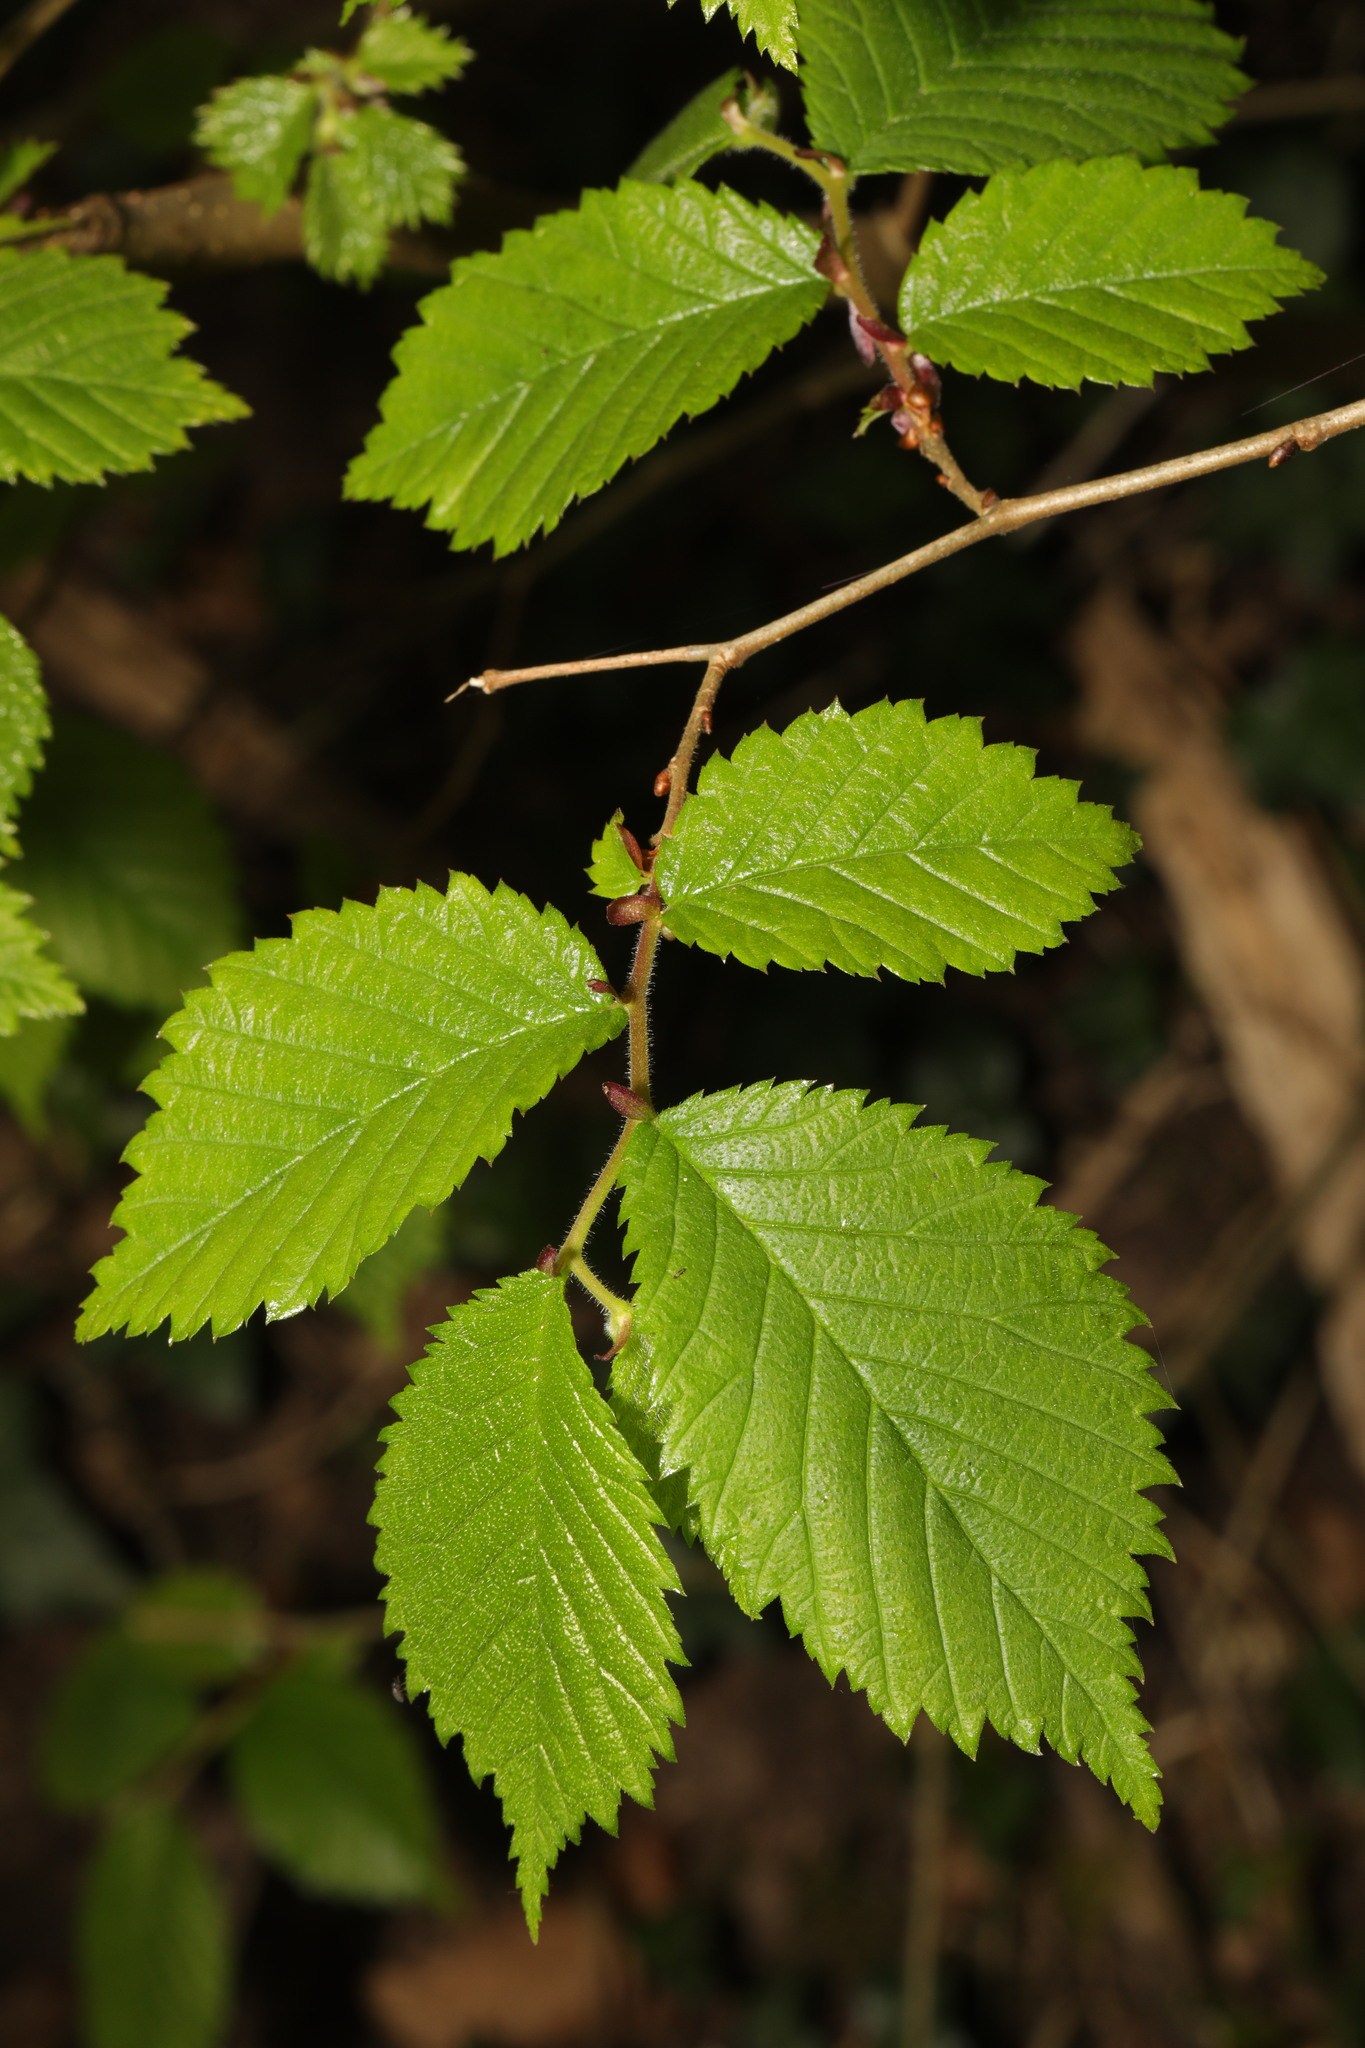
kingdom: Plantae
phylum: Tracheophyta
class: Magnoliopsida
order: Rosales
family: Ulmaceae
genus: Ulmus
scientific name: Ulmus glabra
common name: Wych elm
